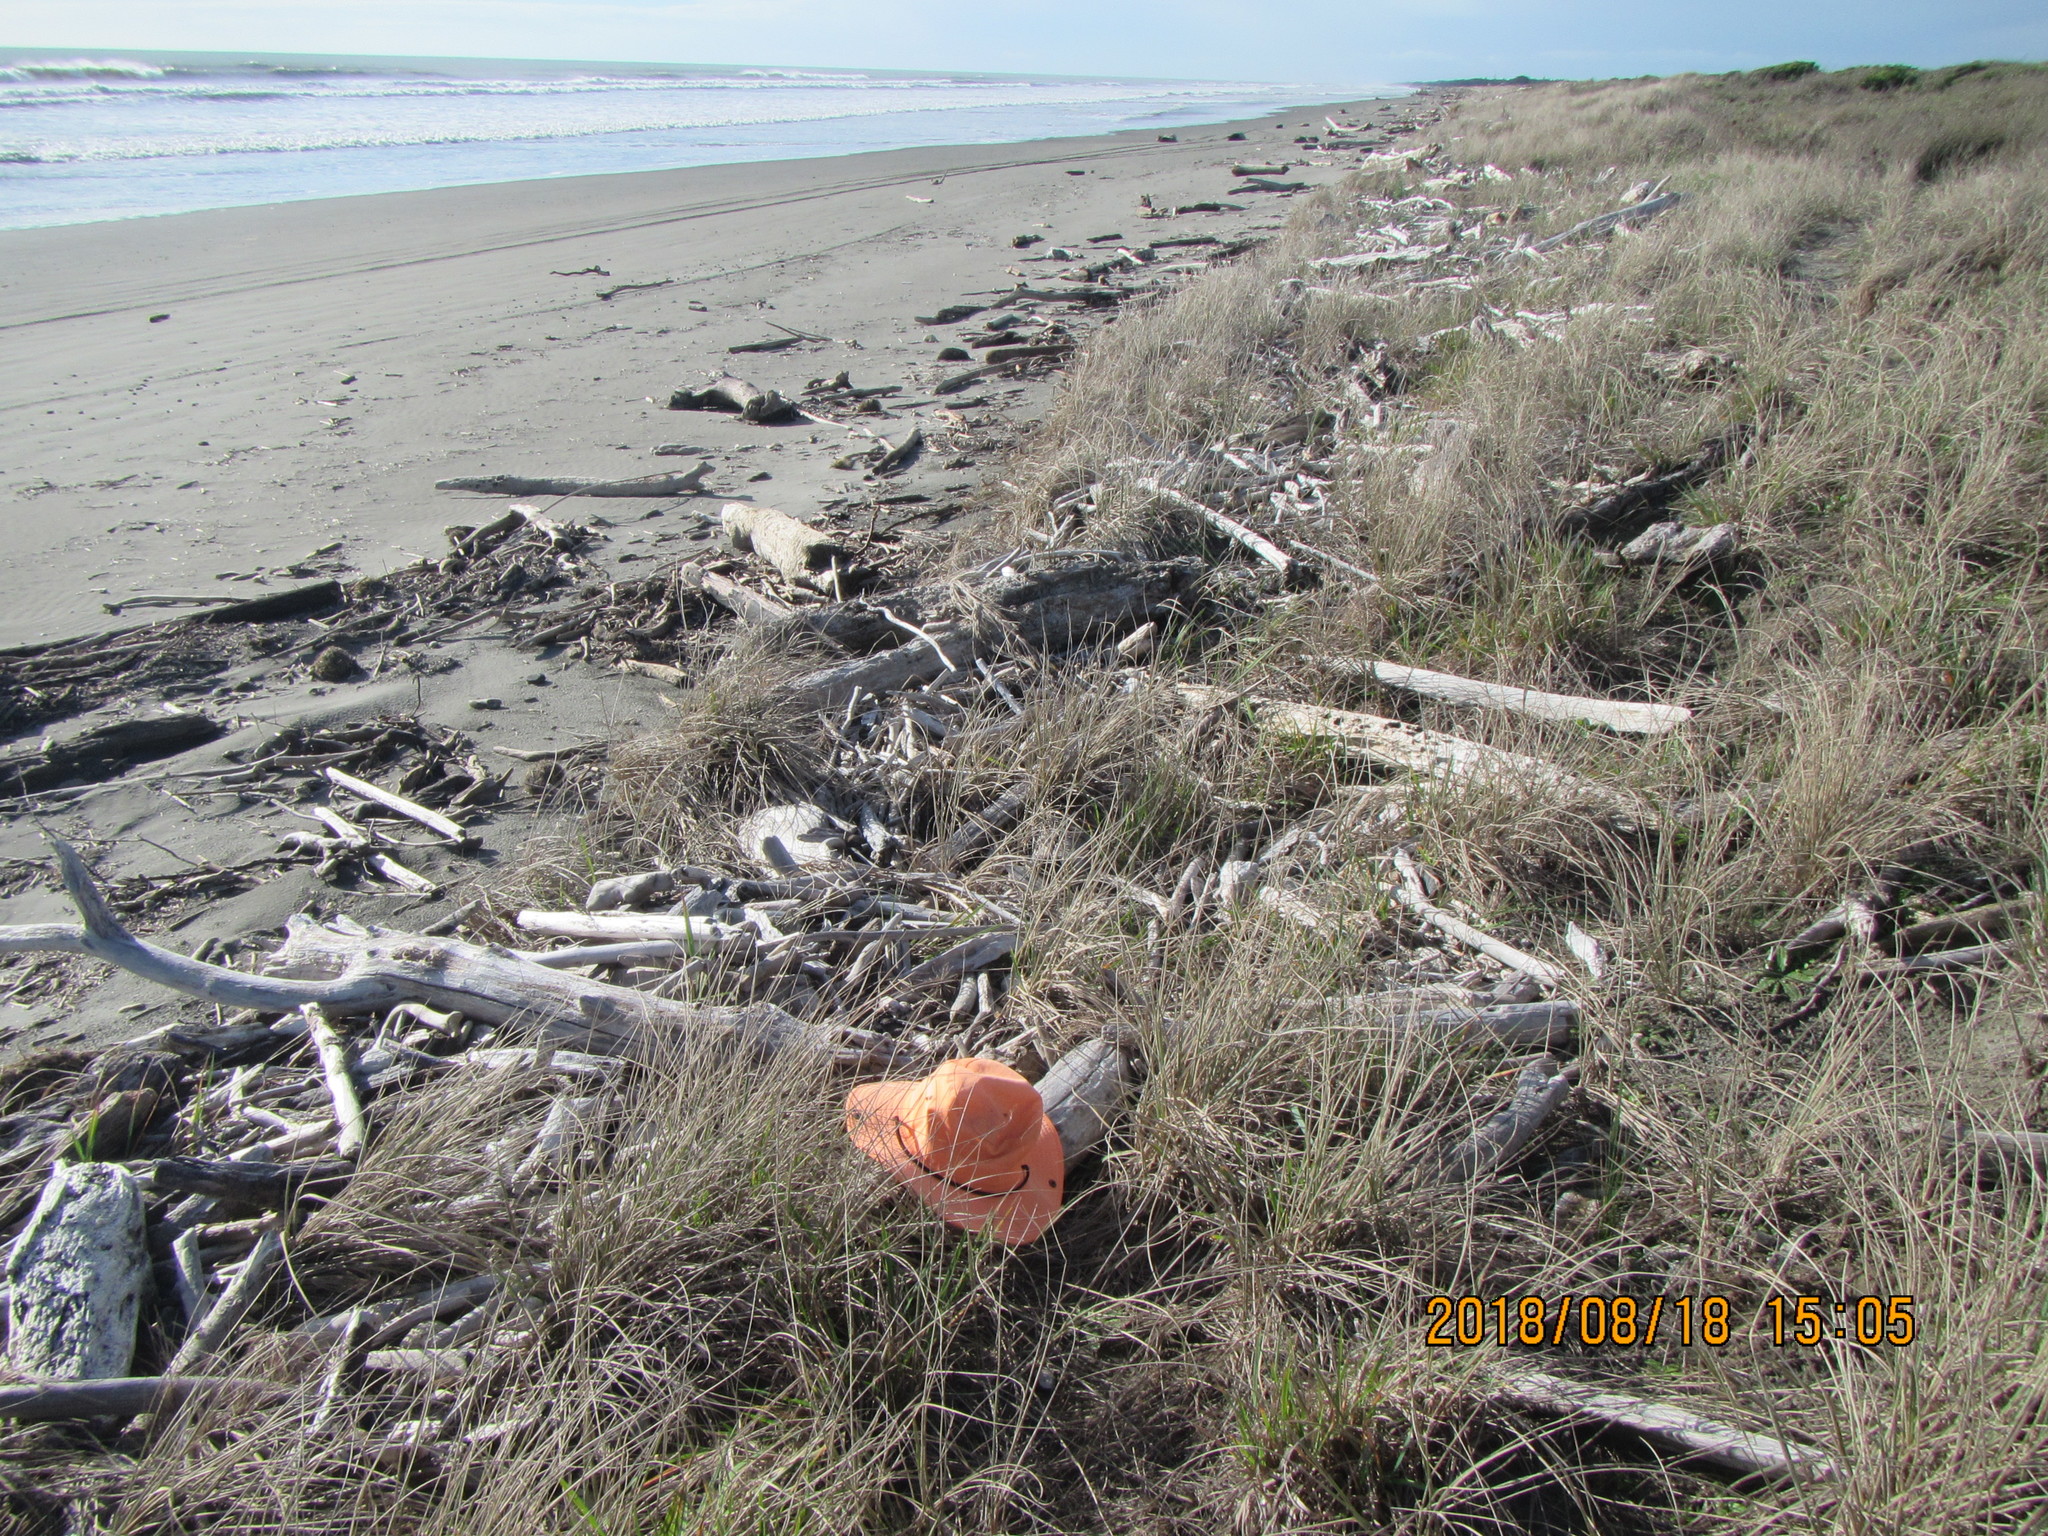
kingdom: Animalia
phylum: Arthropoda
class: Insecta
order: Coleoptera
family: Curculionidae
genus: Mesites
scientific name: Mesites pallidipennis
